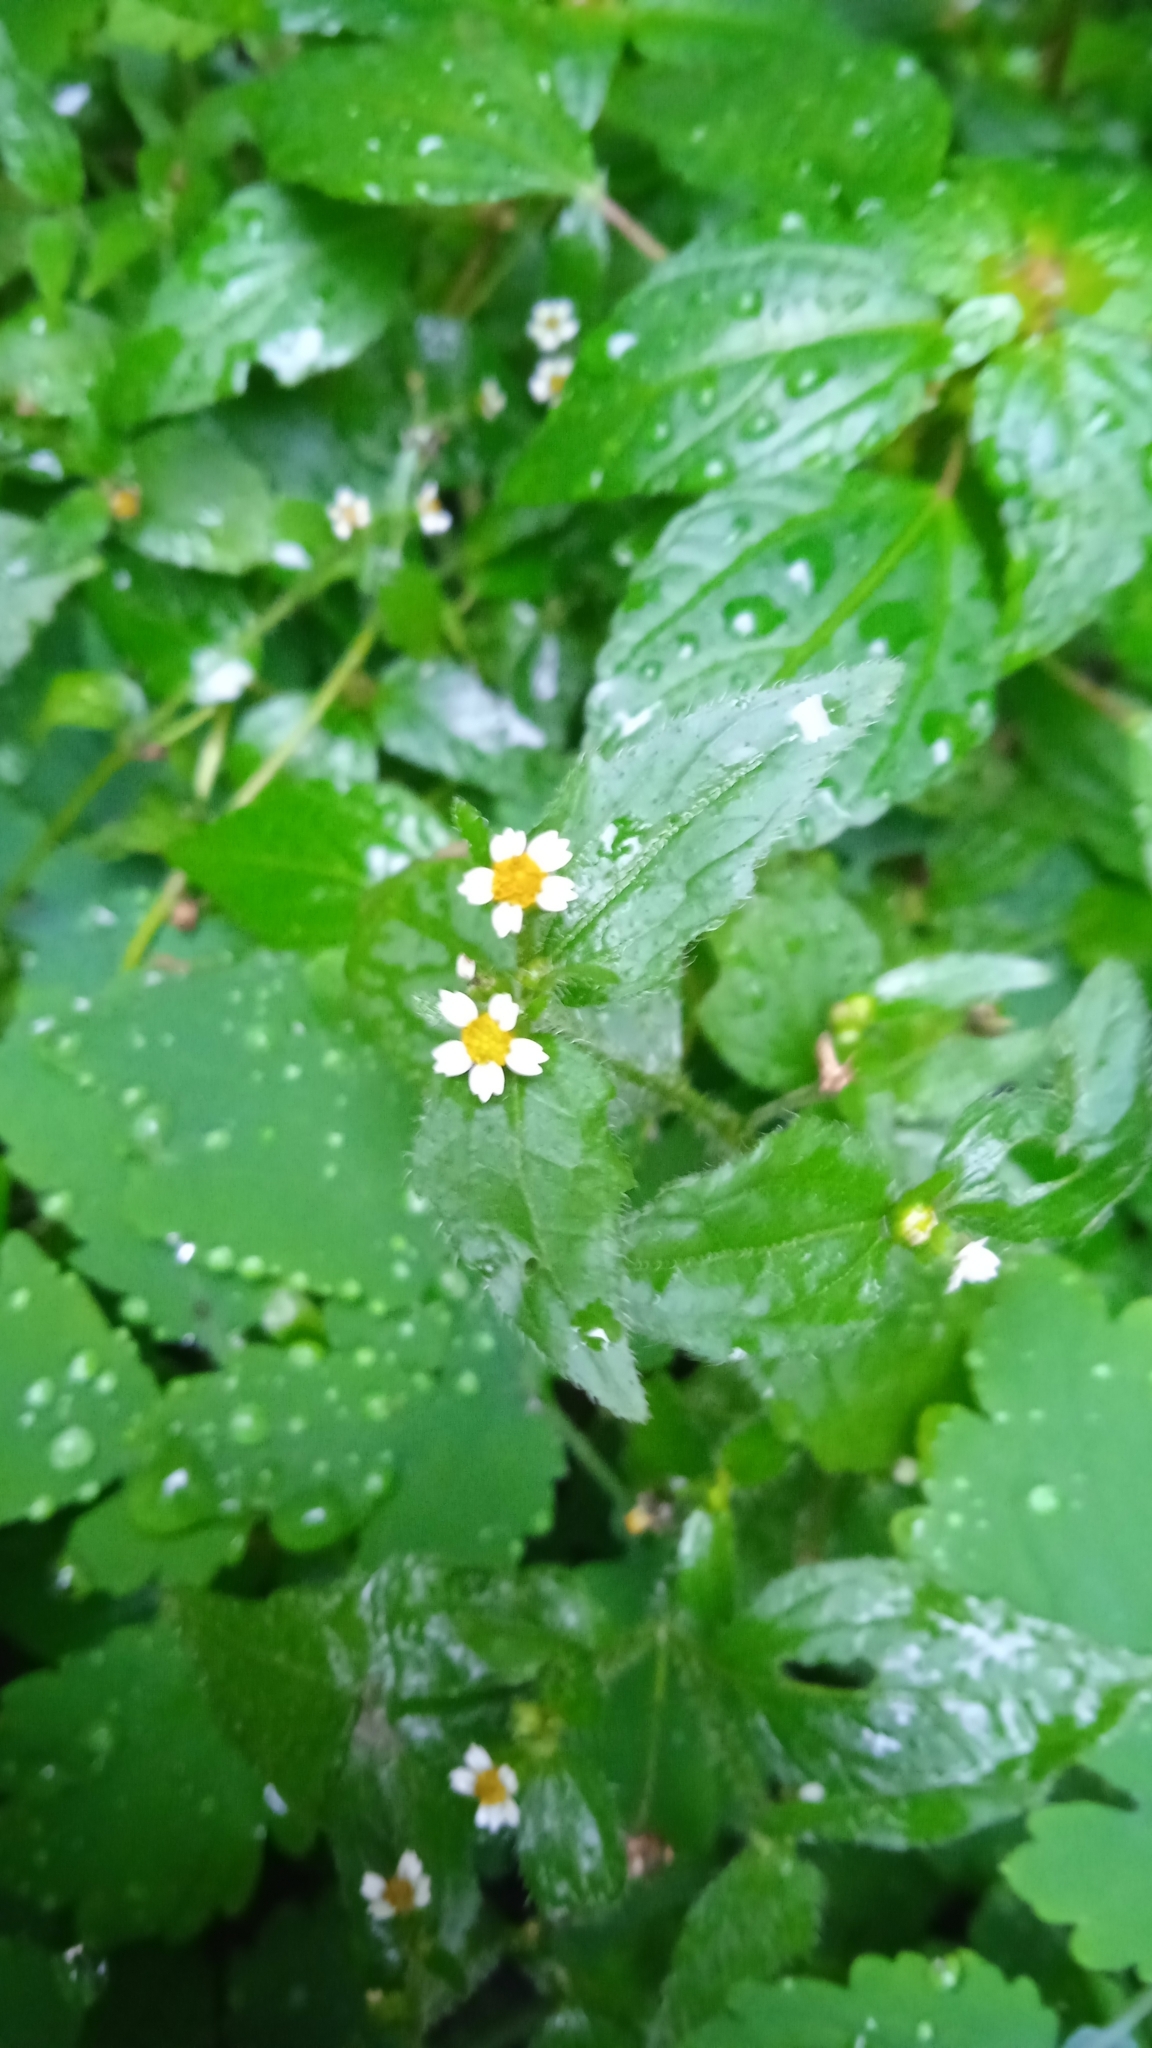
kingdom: Plantae
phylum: Tracheophyta
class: Magnoliopsida
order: Asterales
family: Asteraceae
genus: Galinsoga
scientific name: Galinsoga quadriradiata
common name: Shaggy soldier
